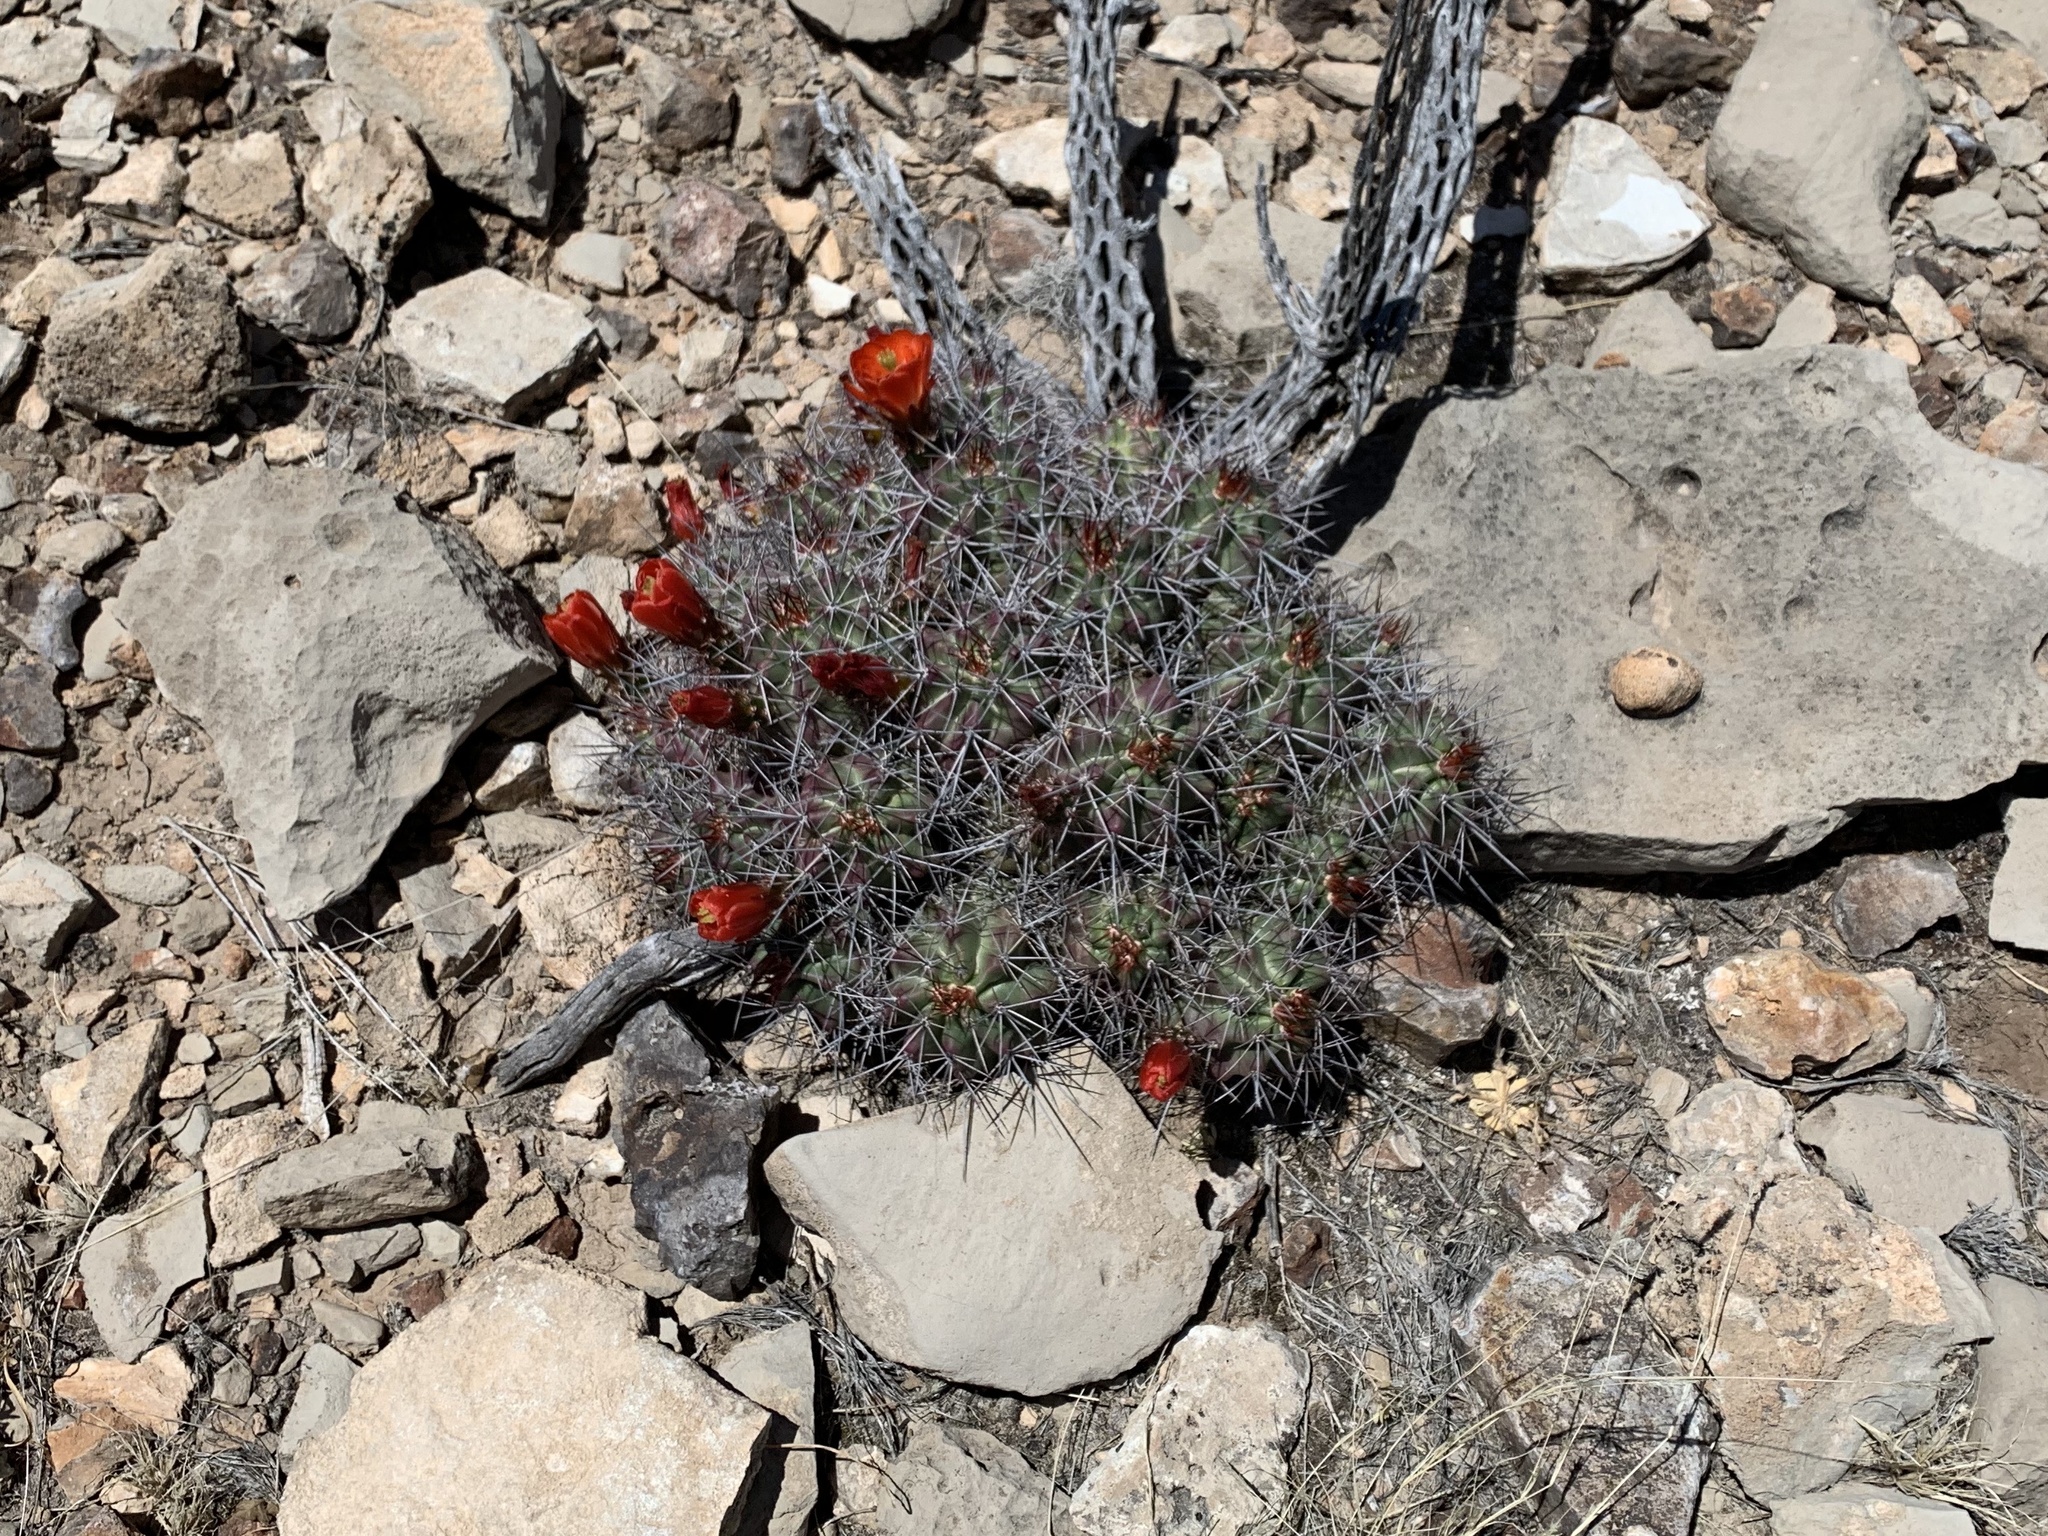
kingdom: Plantae
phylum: Tracheophyta
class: Magnoliopsida
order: Caryophyllales
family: Cactaceae
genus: Echinocereus
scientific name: Echinocereus coccineus
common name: Scarlet hedgehog cactus
